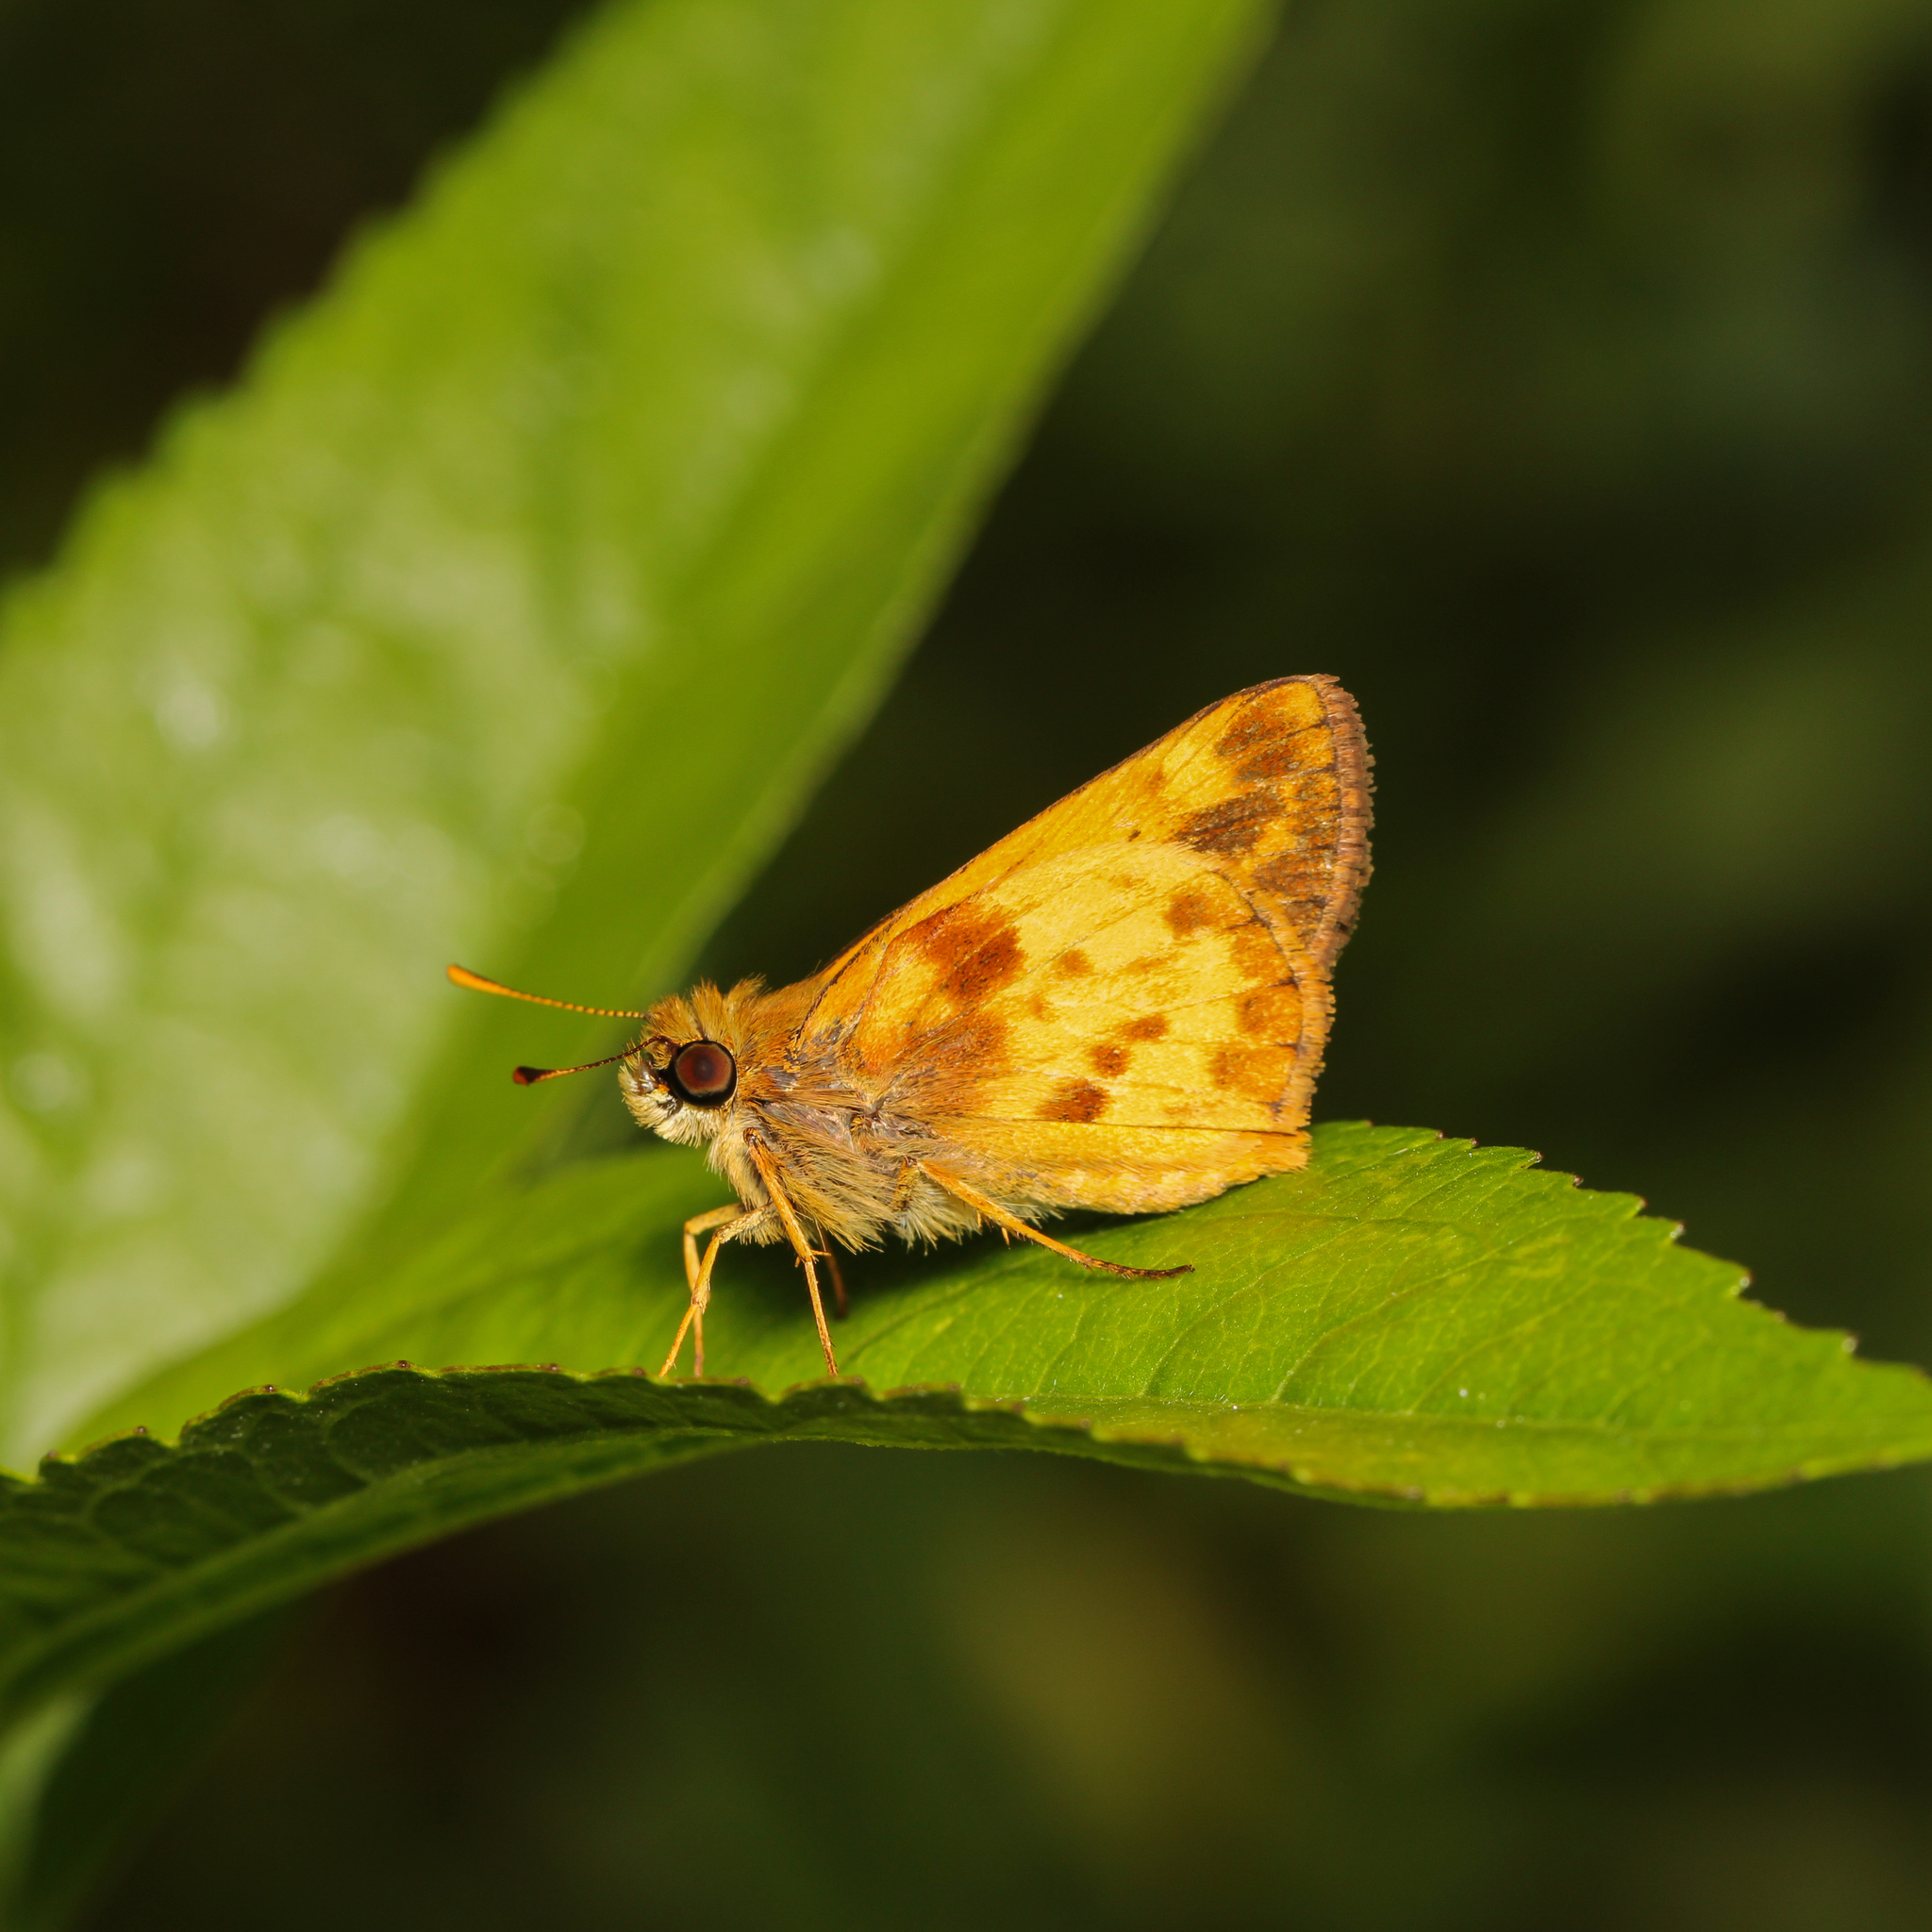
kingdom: Animalia
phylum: Arthropoda
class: Insecta
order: Lepidoptera
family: Hesperiidae
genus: Lon
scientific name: Lon zabulon
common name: Zabulon skipper
